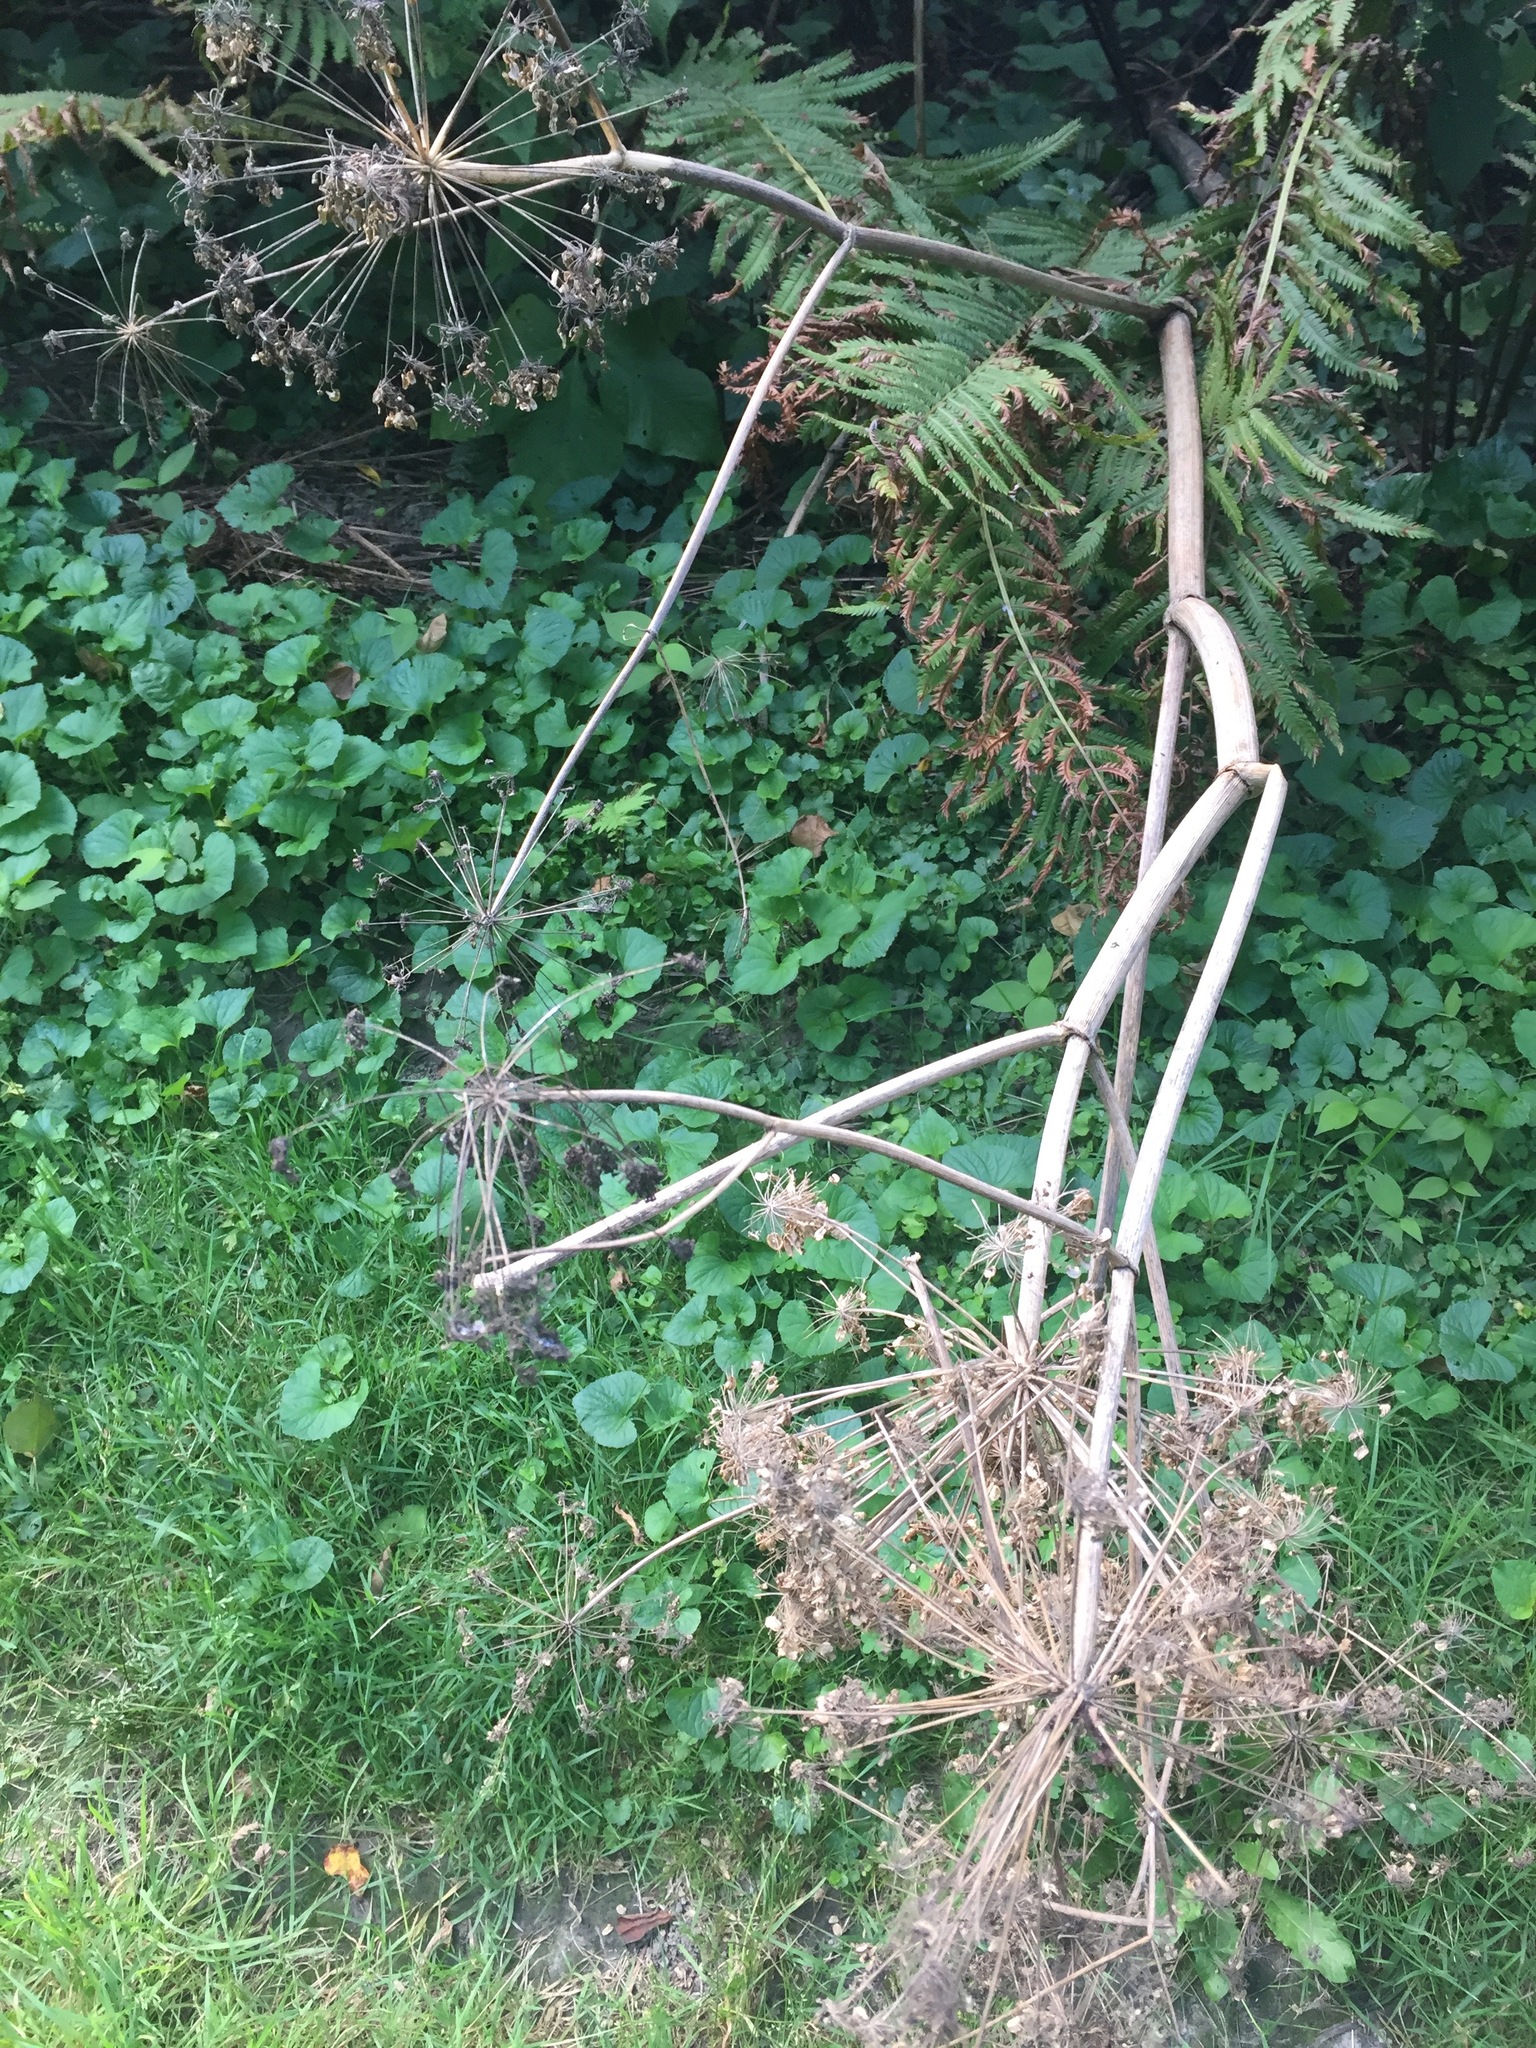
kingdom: Plantae
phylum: Tracheophyta
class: Magnoliopsida
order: Apiales
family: Apiaceae
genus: Heracleum
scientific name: Heracleum maximum
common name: American cow parsnip
